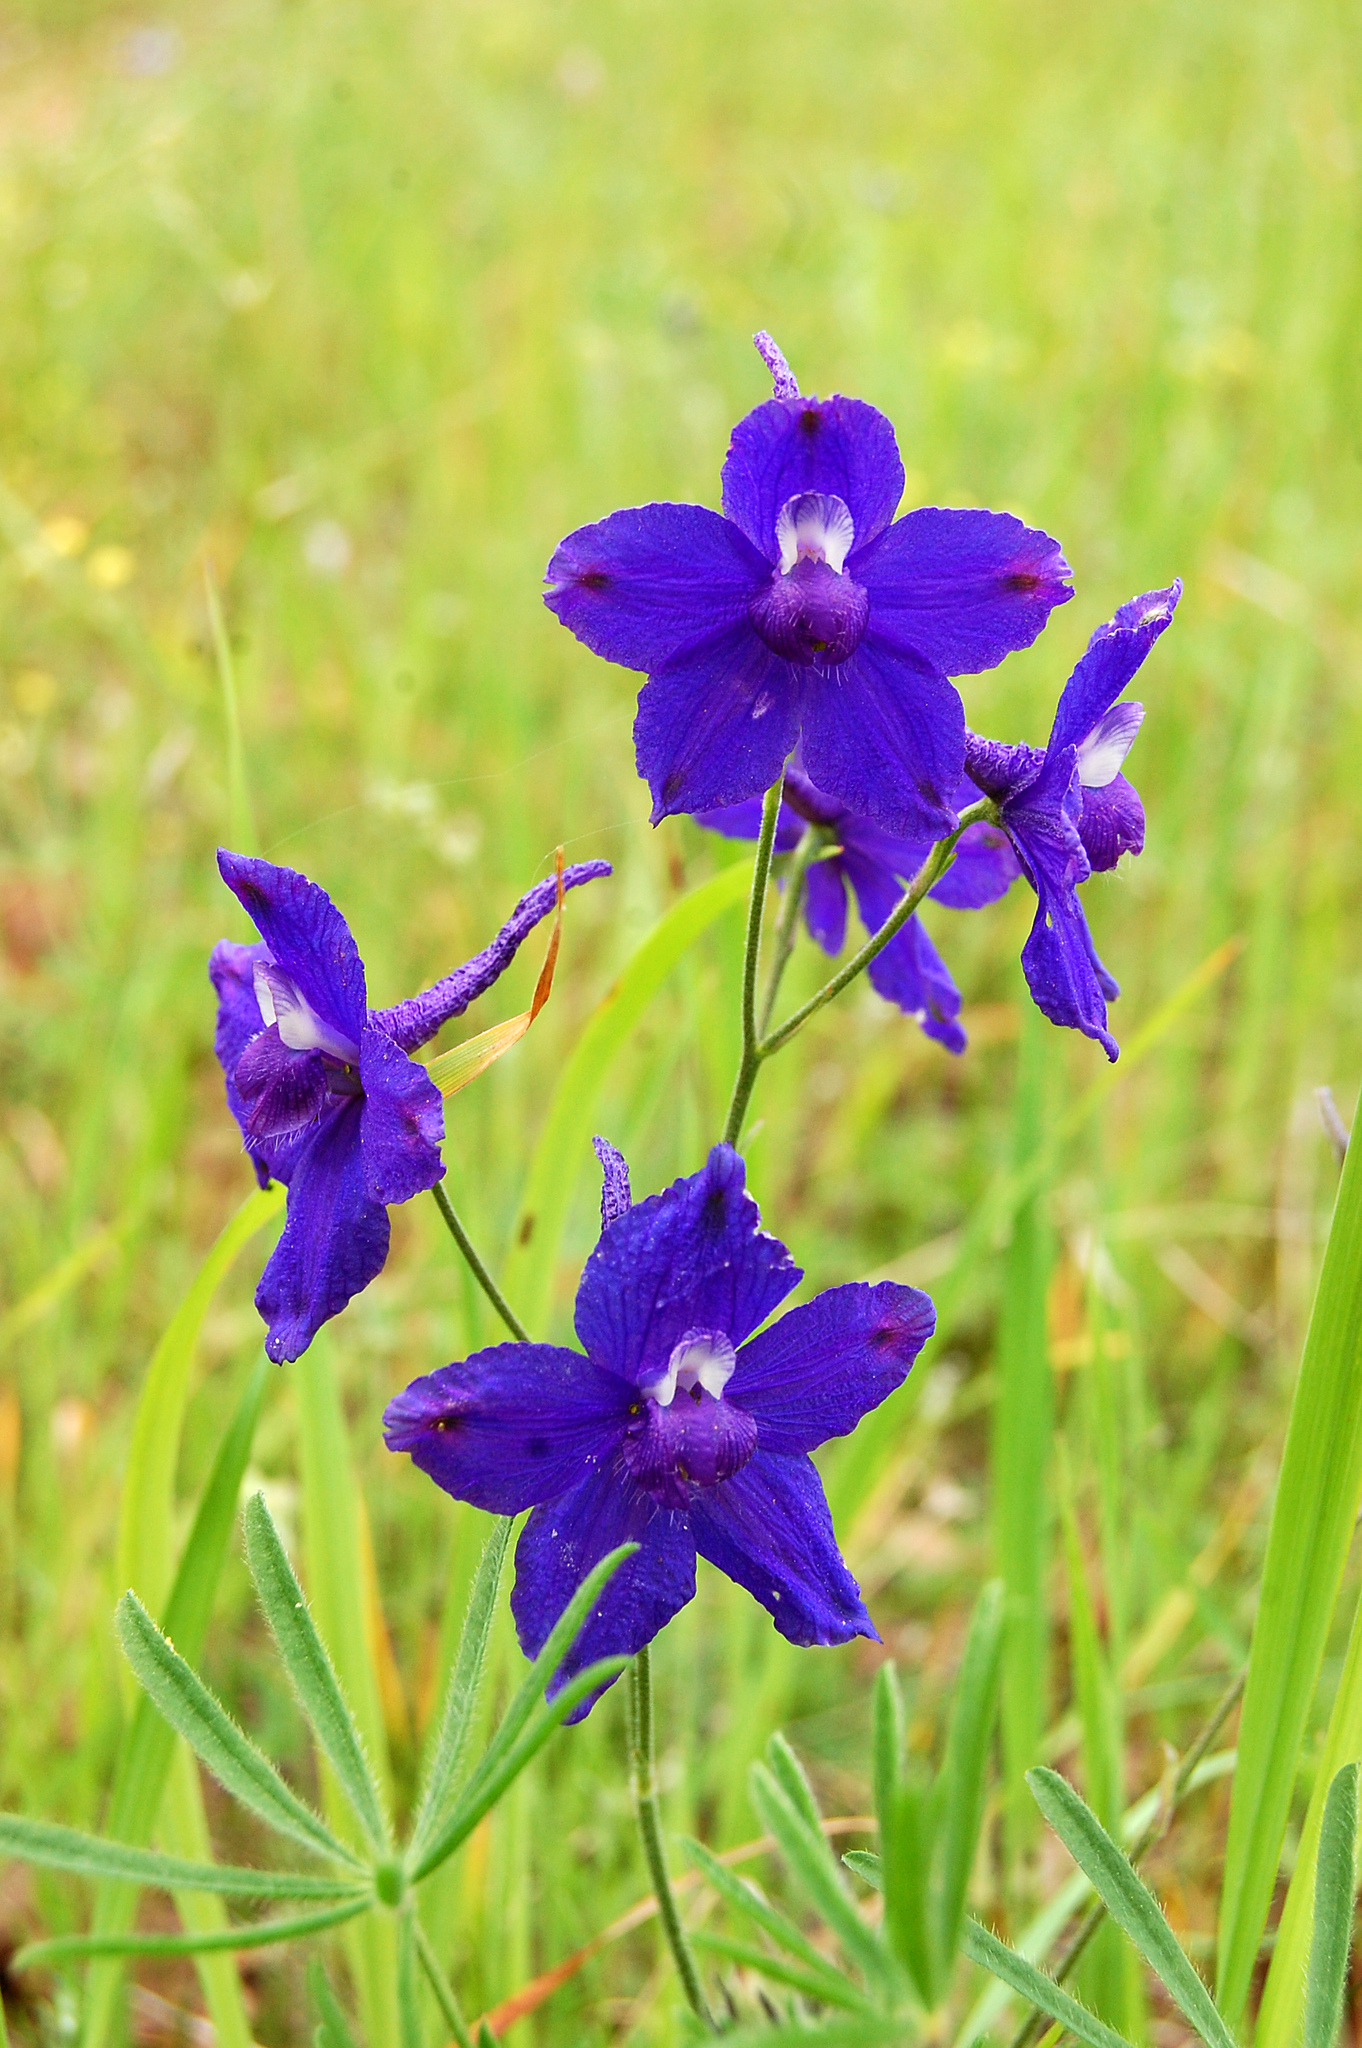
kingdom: Plantae
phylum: Tracheophyta
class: Magnoliopsida
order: Ranunculales
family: Ranunculaceae
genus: Delphinium
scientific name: Delphinium variegatum
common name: Royal larkspur
